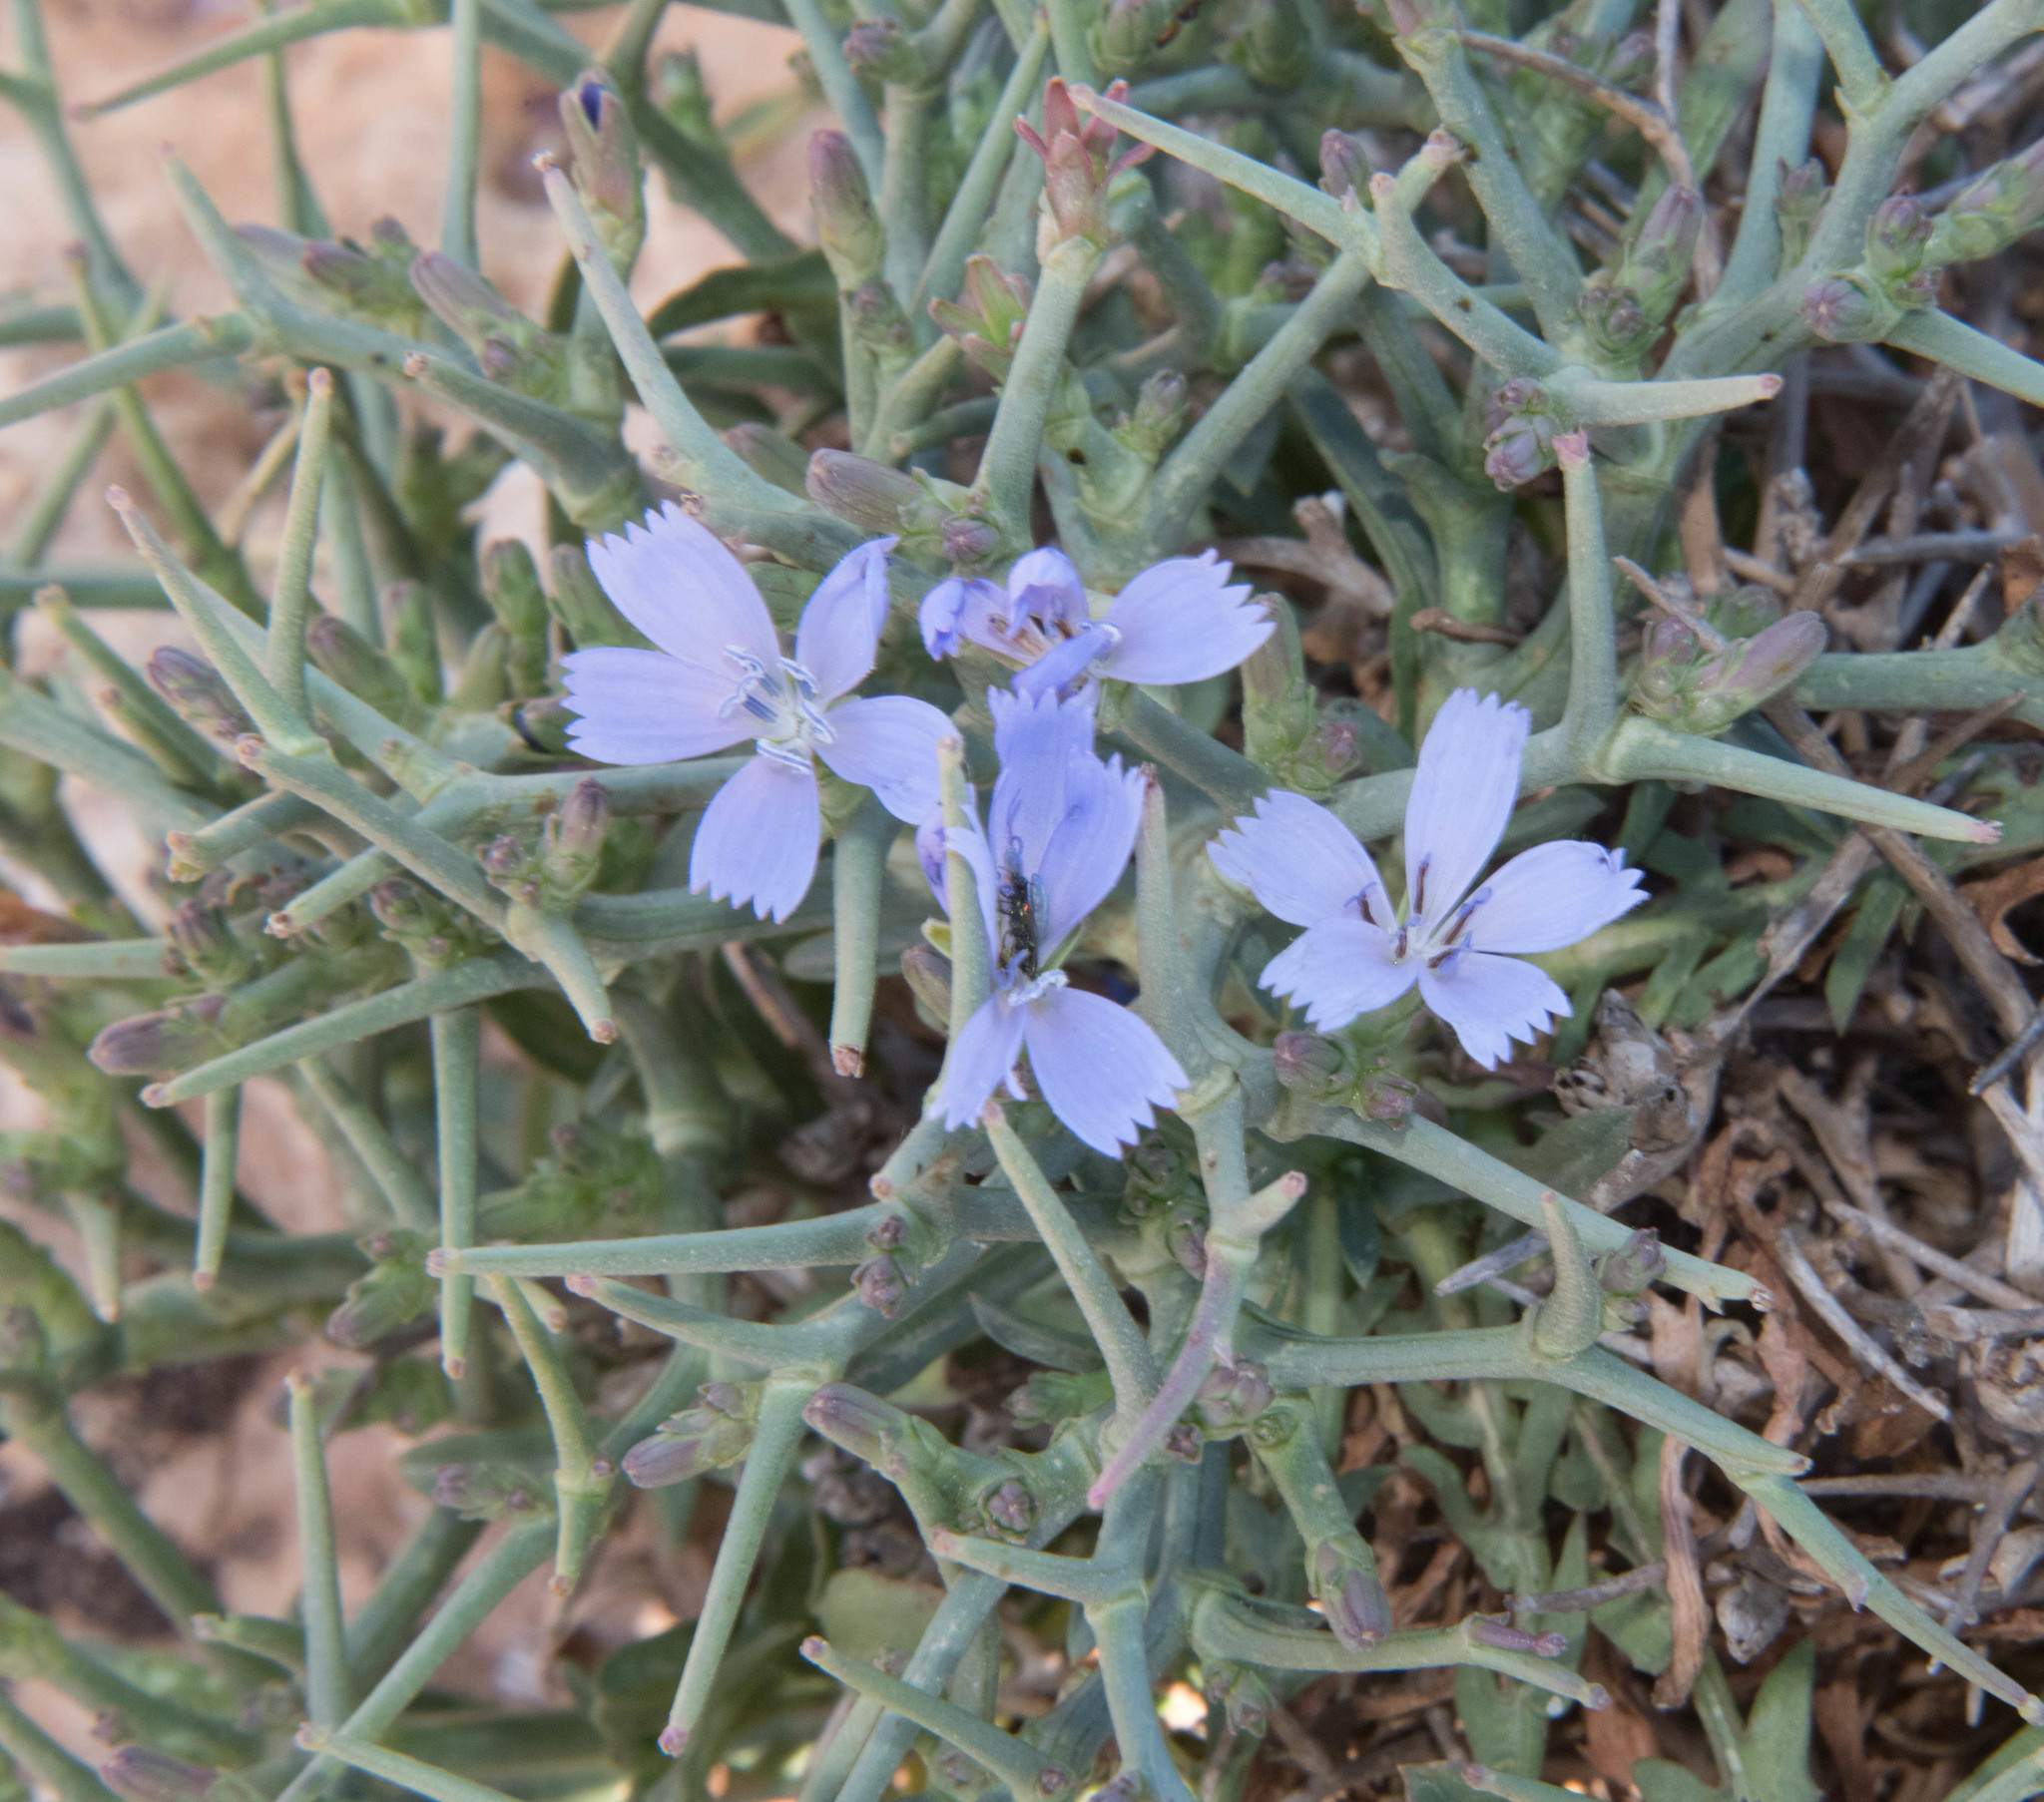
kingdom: Plantae
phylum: Tracheophyta
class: Magnoliopsida
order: Asterales
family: Asteraceae
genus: Cichorium
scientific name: Cichorium spinosum
